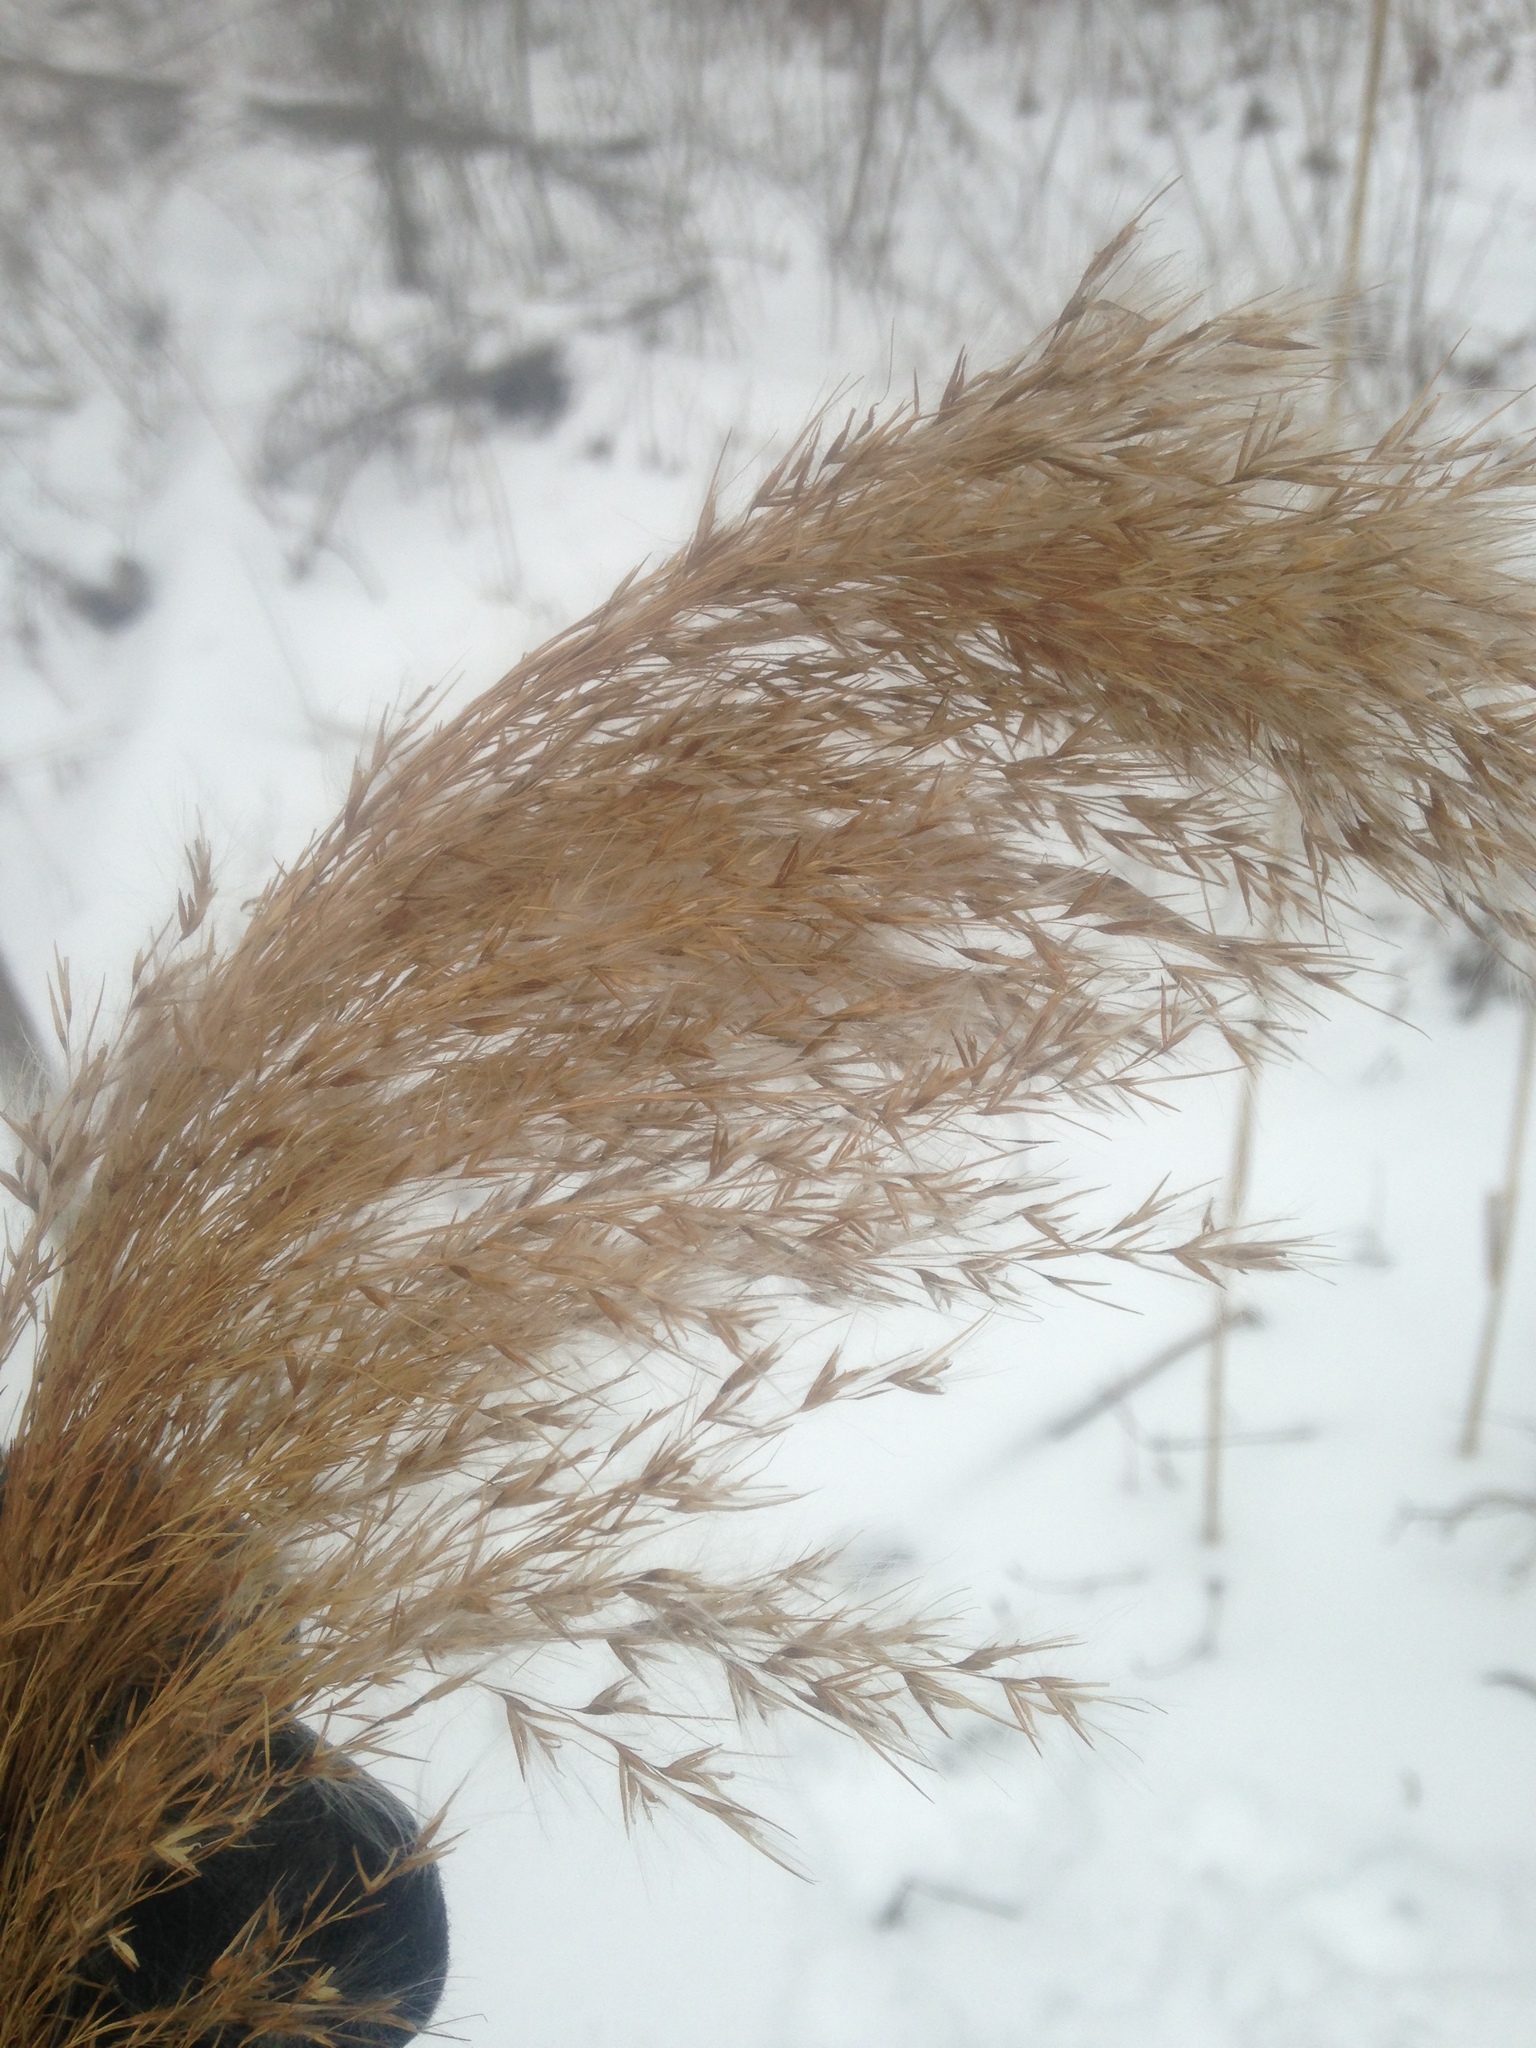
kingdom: Plantae
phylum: Tracheophyta
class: Liliopsida
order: Poales
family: Poaceae
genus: Phragmites
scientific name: Phragmites australis
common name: Common reed
